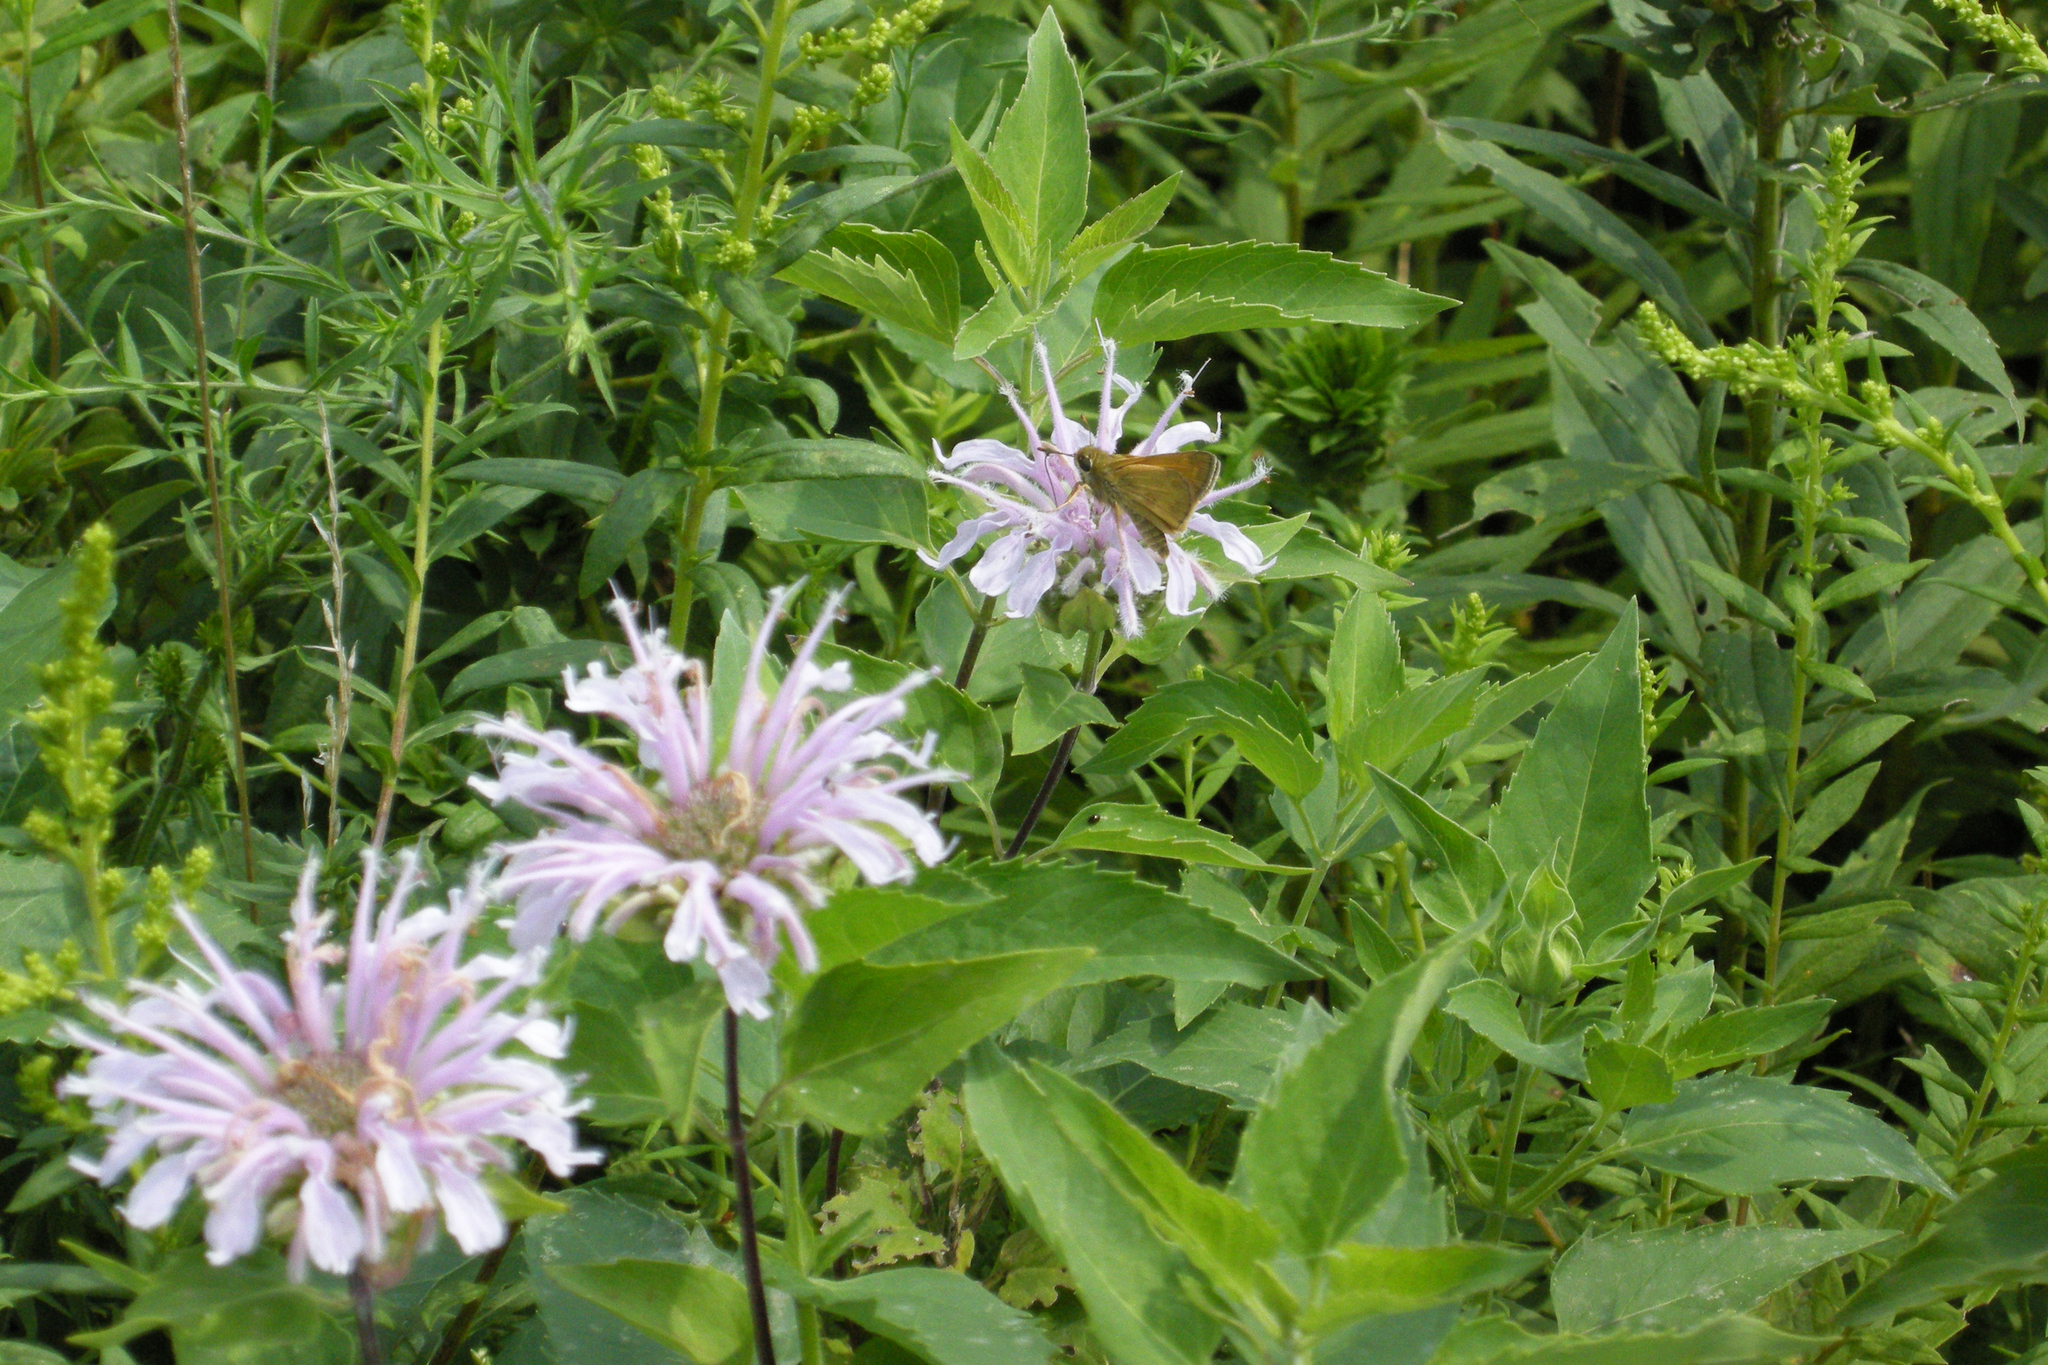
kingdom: Plantae
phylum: Tracheophyta
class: Magnoliopsida
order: Lamiales
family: Lamiaceae
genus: Monarda
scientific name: Monarda fistulosa
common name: Purple beebalm
